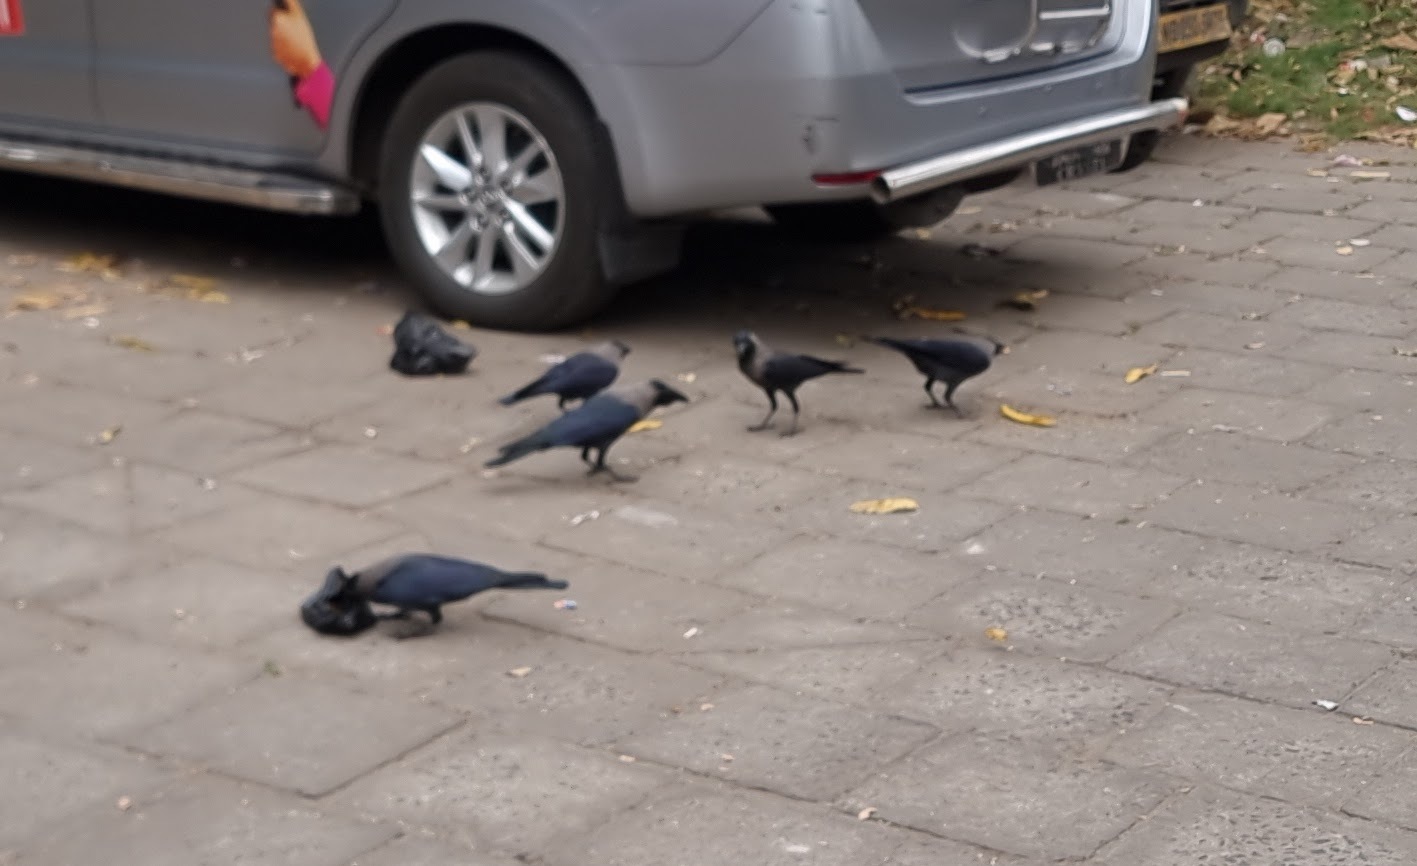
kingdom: Animalia
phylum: Chordata
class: Aves
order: Passeriformes
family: Corvidae
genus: Corvus
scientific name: Corvus splendens
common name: House crow
